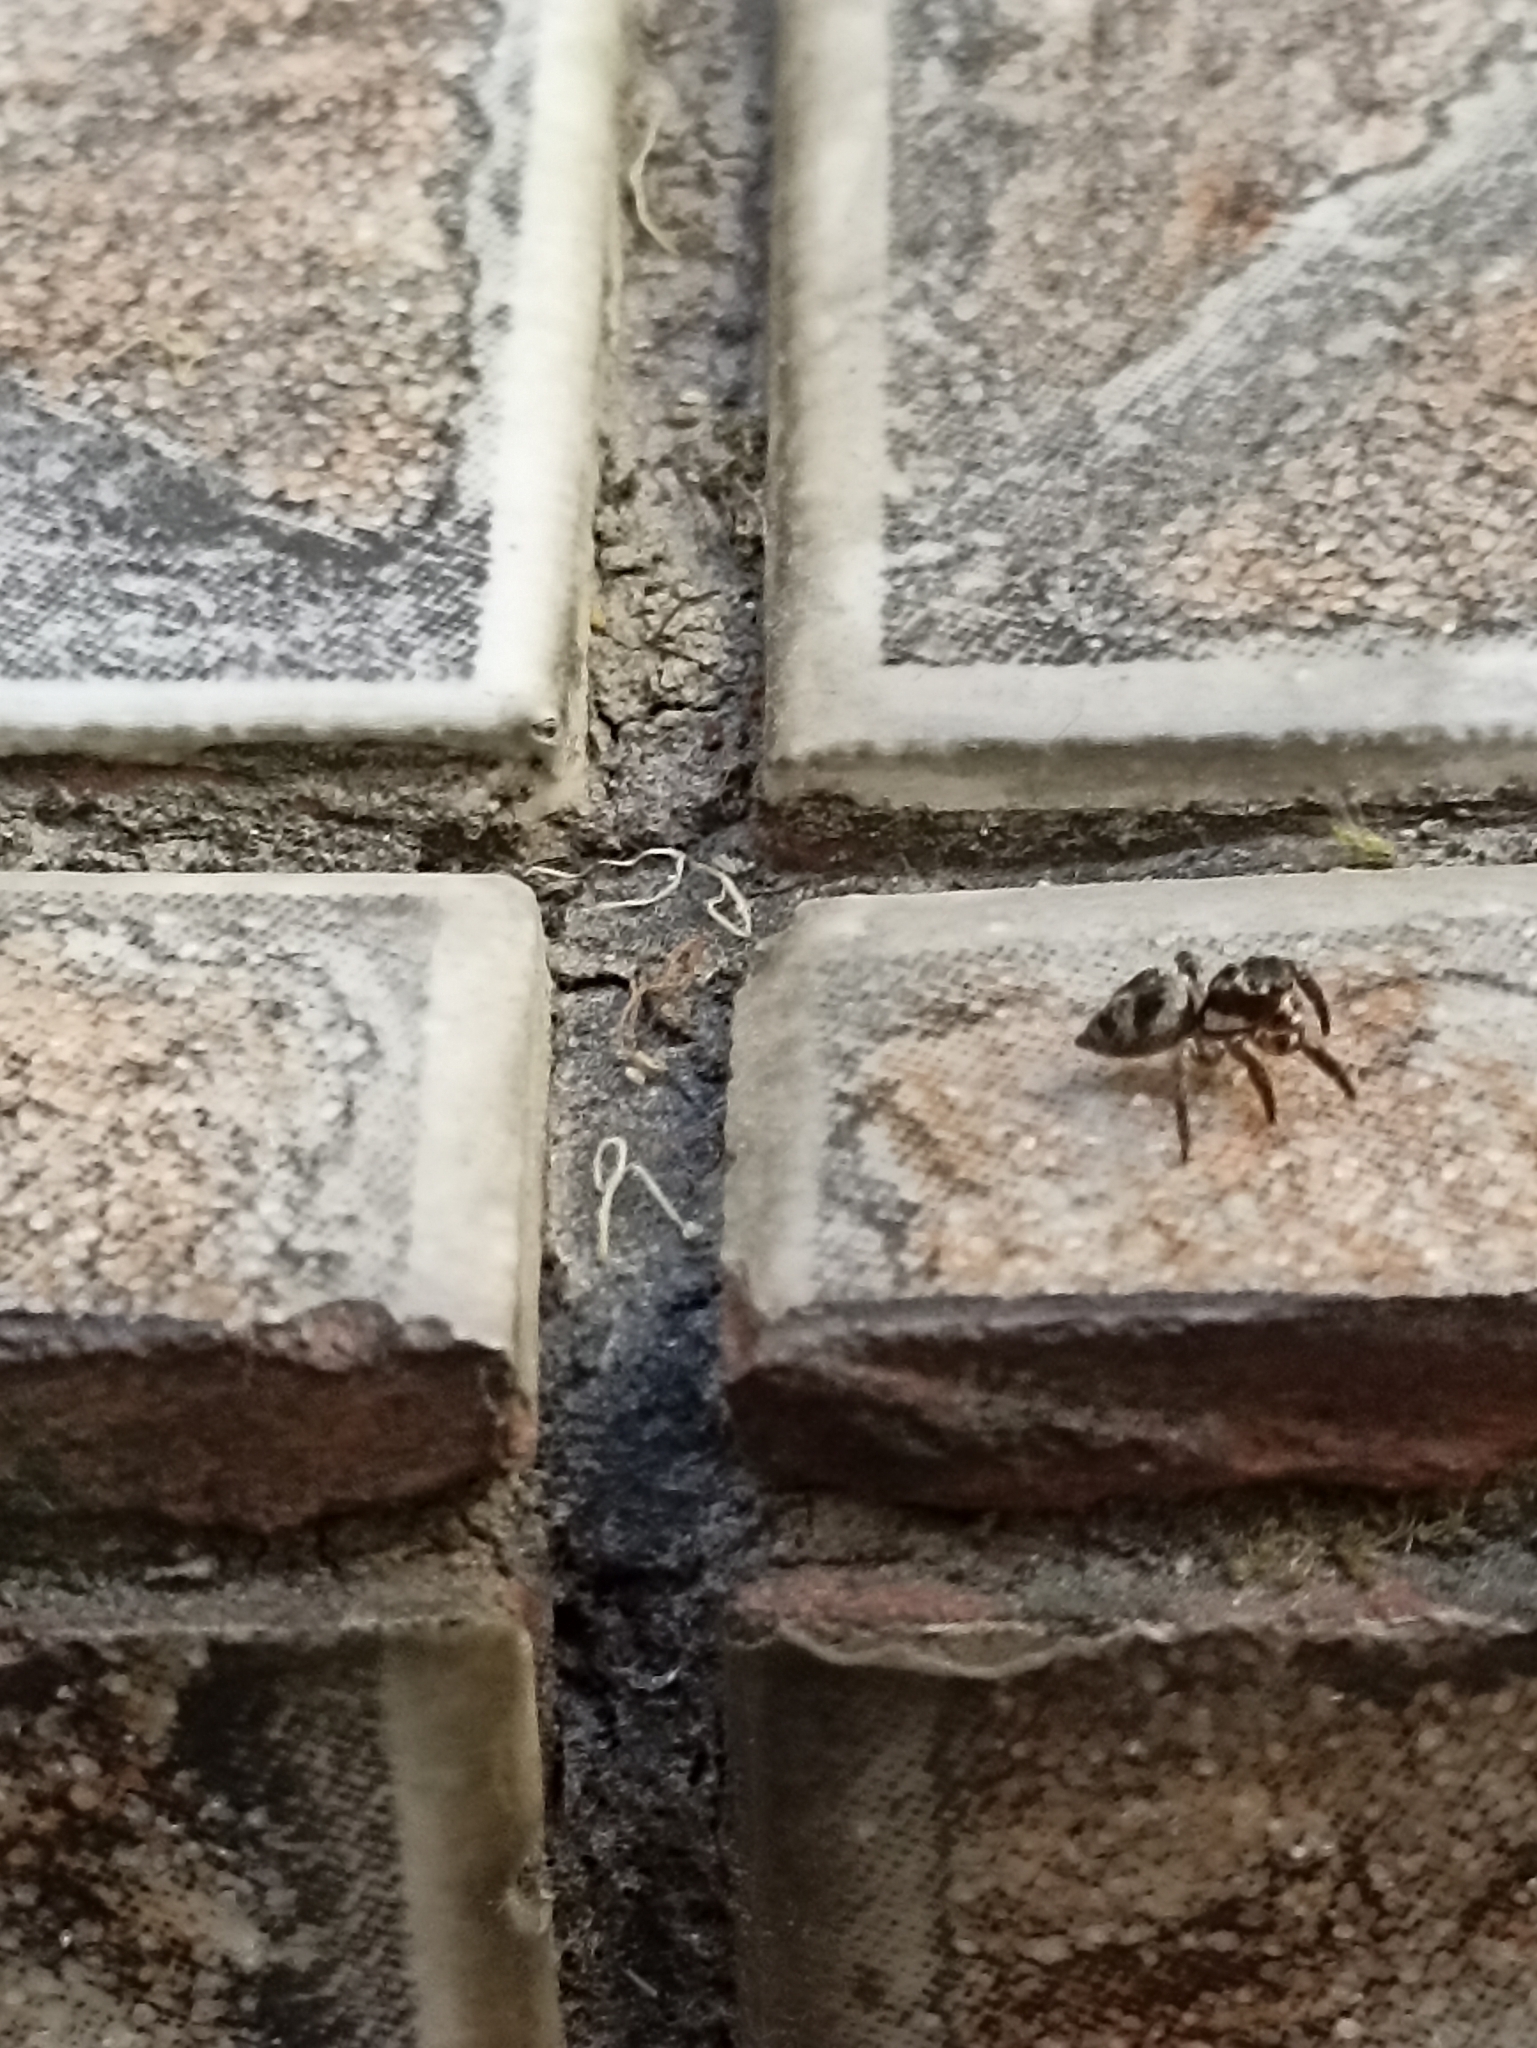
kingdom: Animalia
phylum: Arthropoda
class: Arachnida
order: Araneae
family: Salticidae
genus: Corythalia
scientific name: Corythalia conferta
